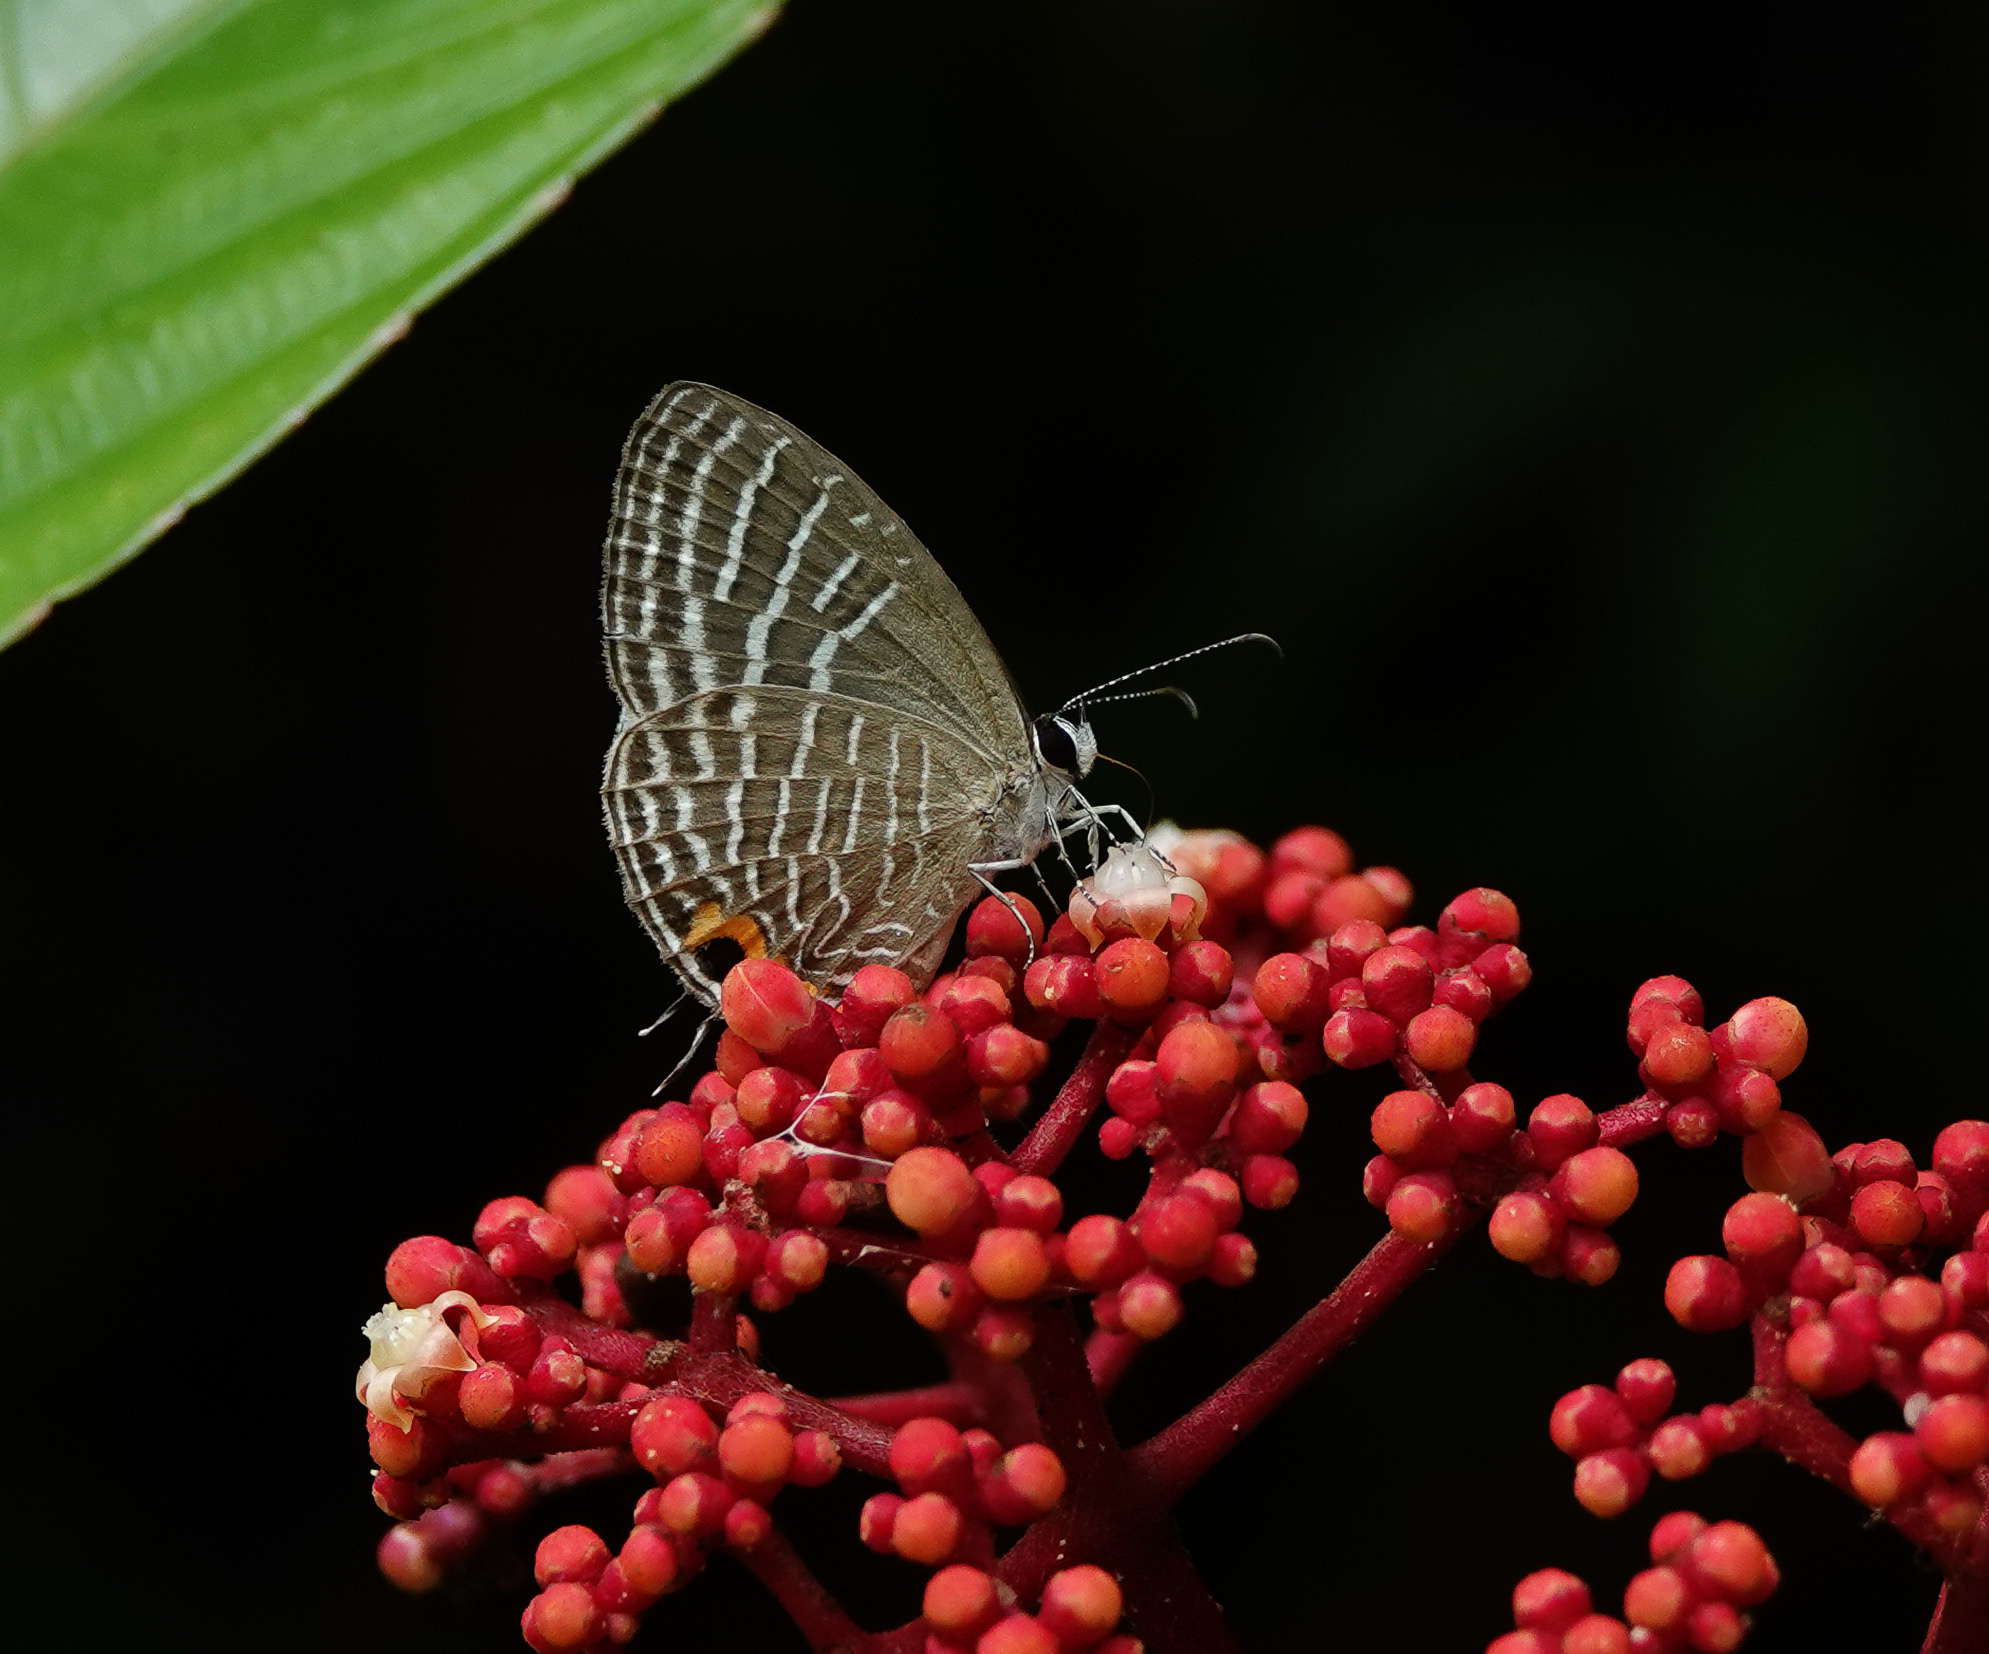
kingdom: Animalia
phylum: Arthropoda
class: Insecta
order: Lepidoptera
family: Lycaenidae
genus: Jamides
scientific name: Jamides celeno
